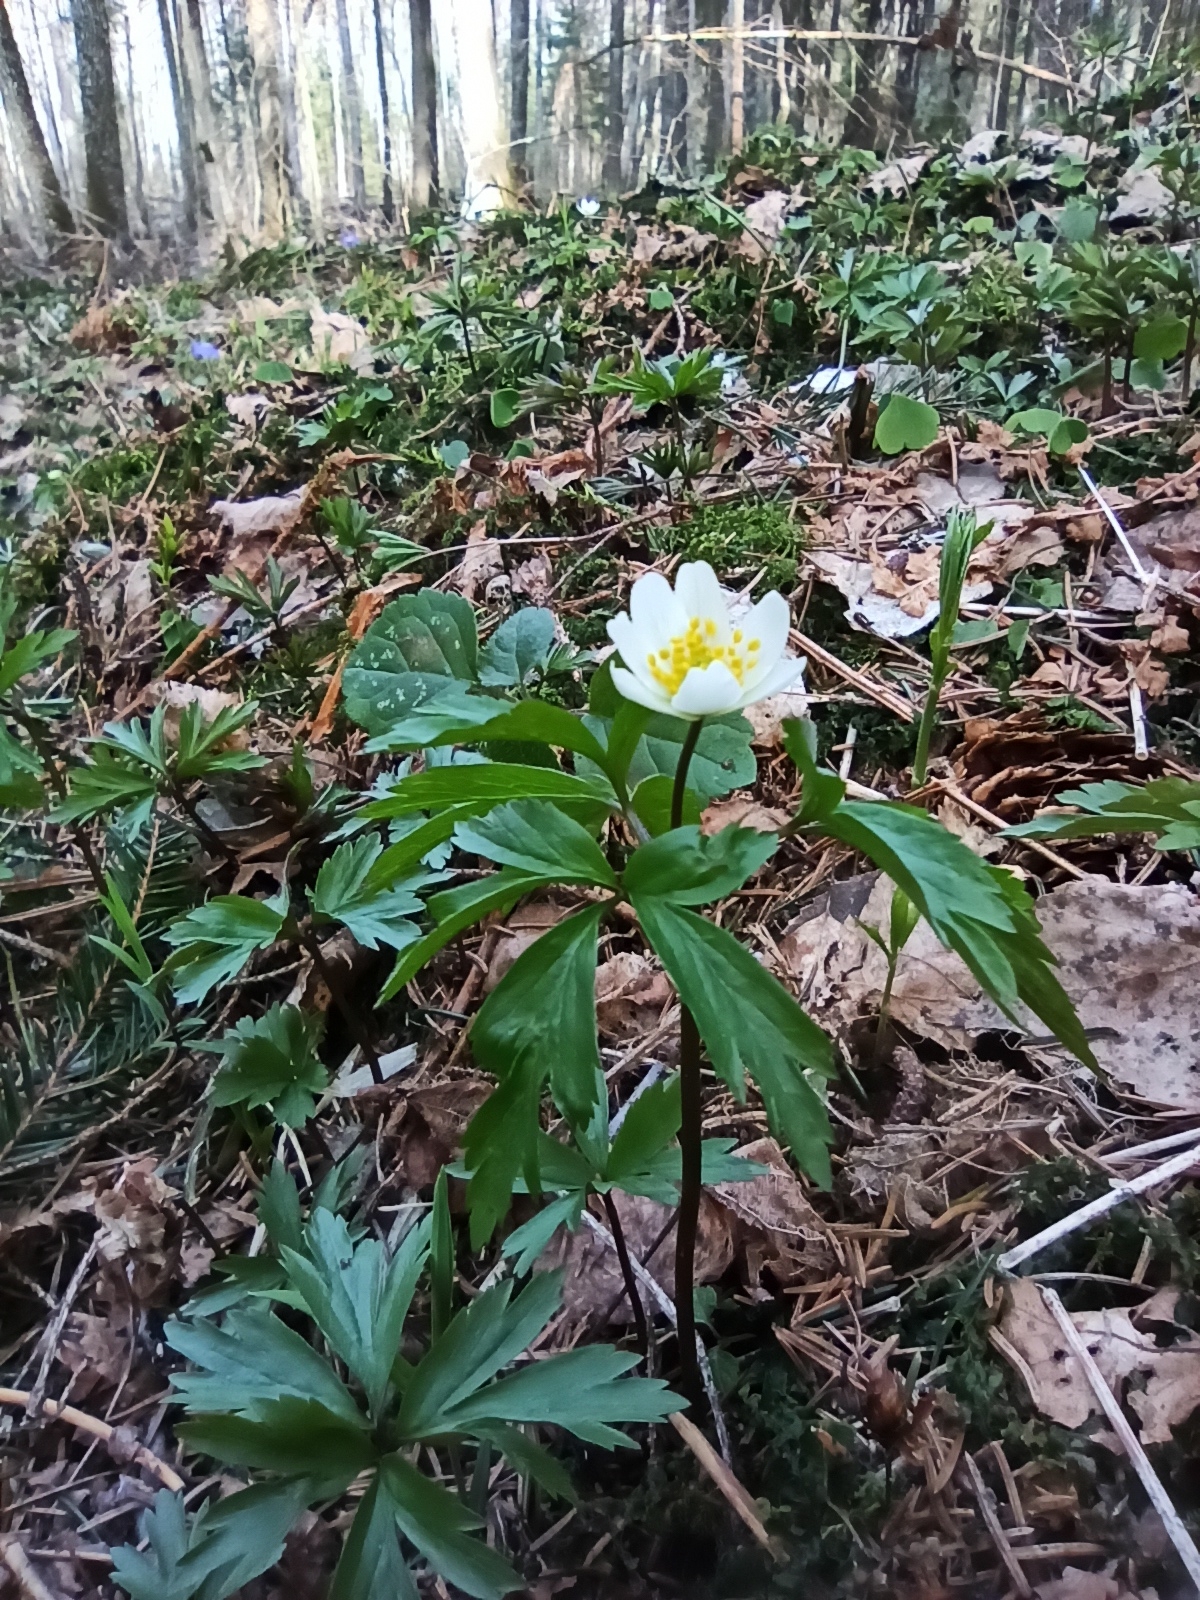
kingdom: Plantae
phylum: Tracheophyta
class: Magnoliopsida
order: Ranunculales
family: Ranunculaceae
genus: Anemone
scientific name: Anemone nemorosa
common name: Wood anemone
